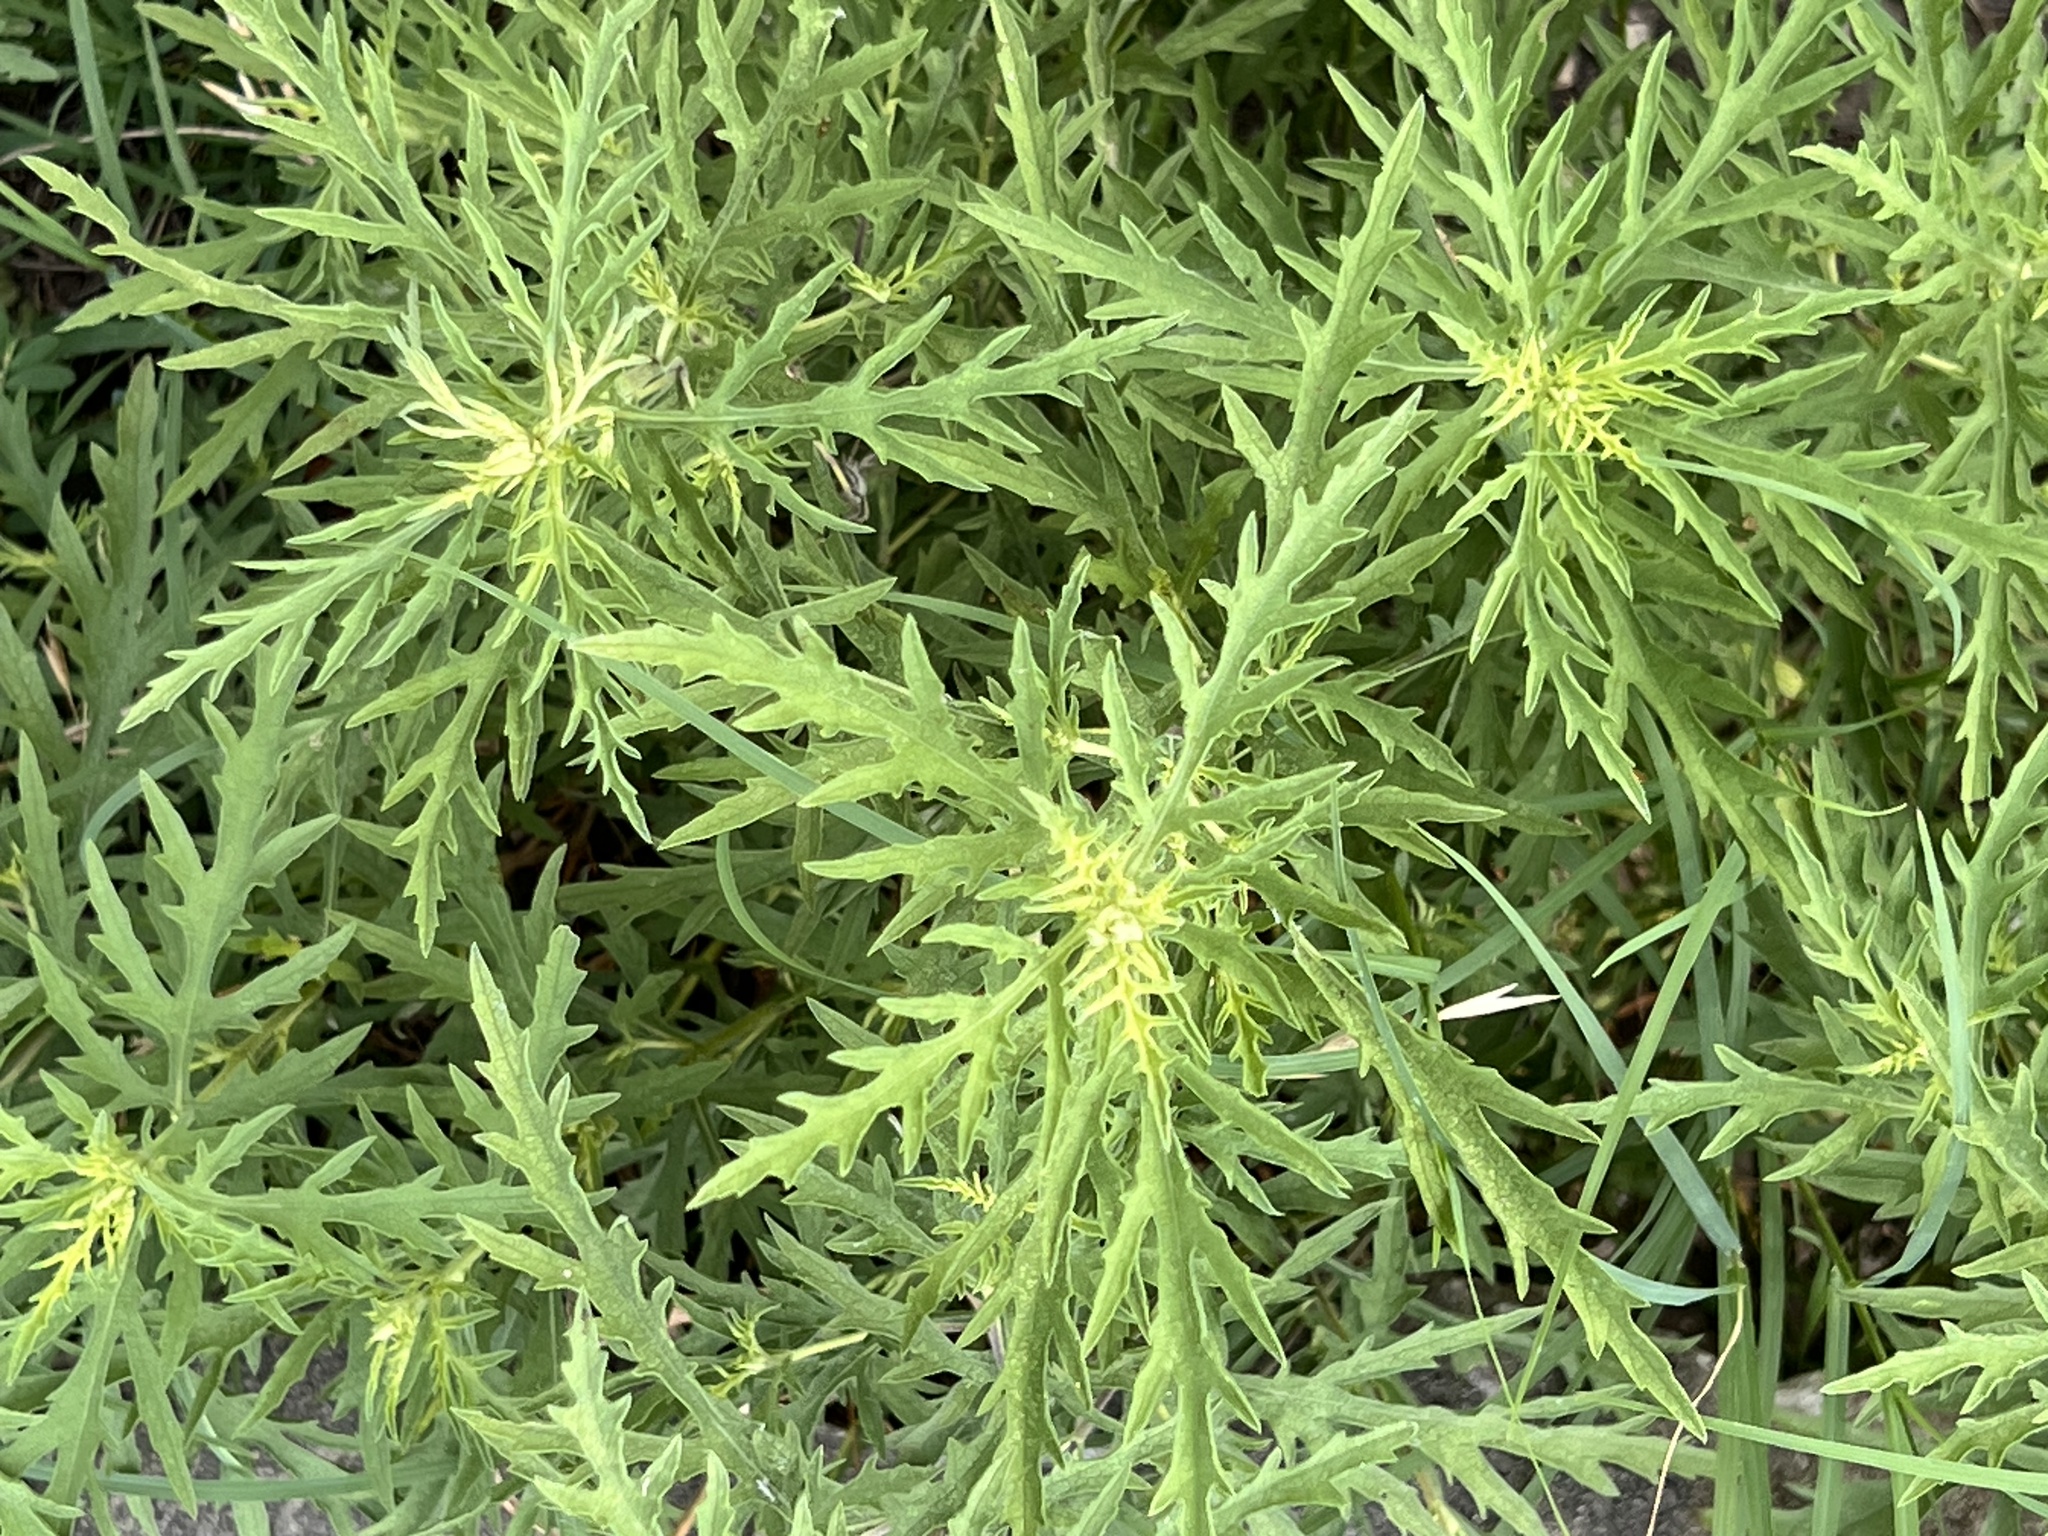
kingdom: Plantae
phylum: Tracheophyta
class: Magnoliopsida
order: Asterales
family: Asteraceae
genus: Ambrosia
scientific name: Ambrosia psilostachya
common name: Perennial ragweed
